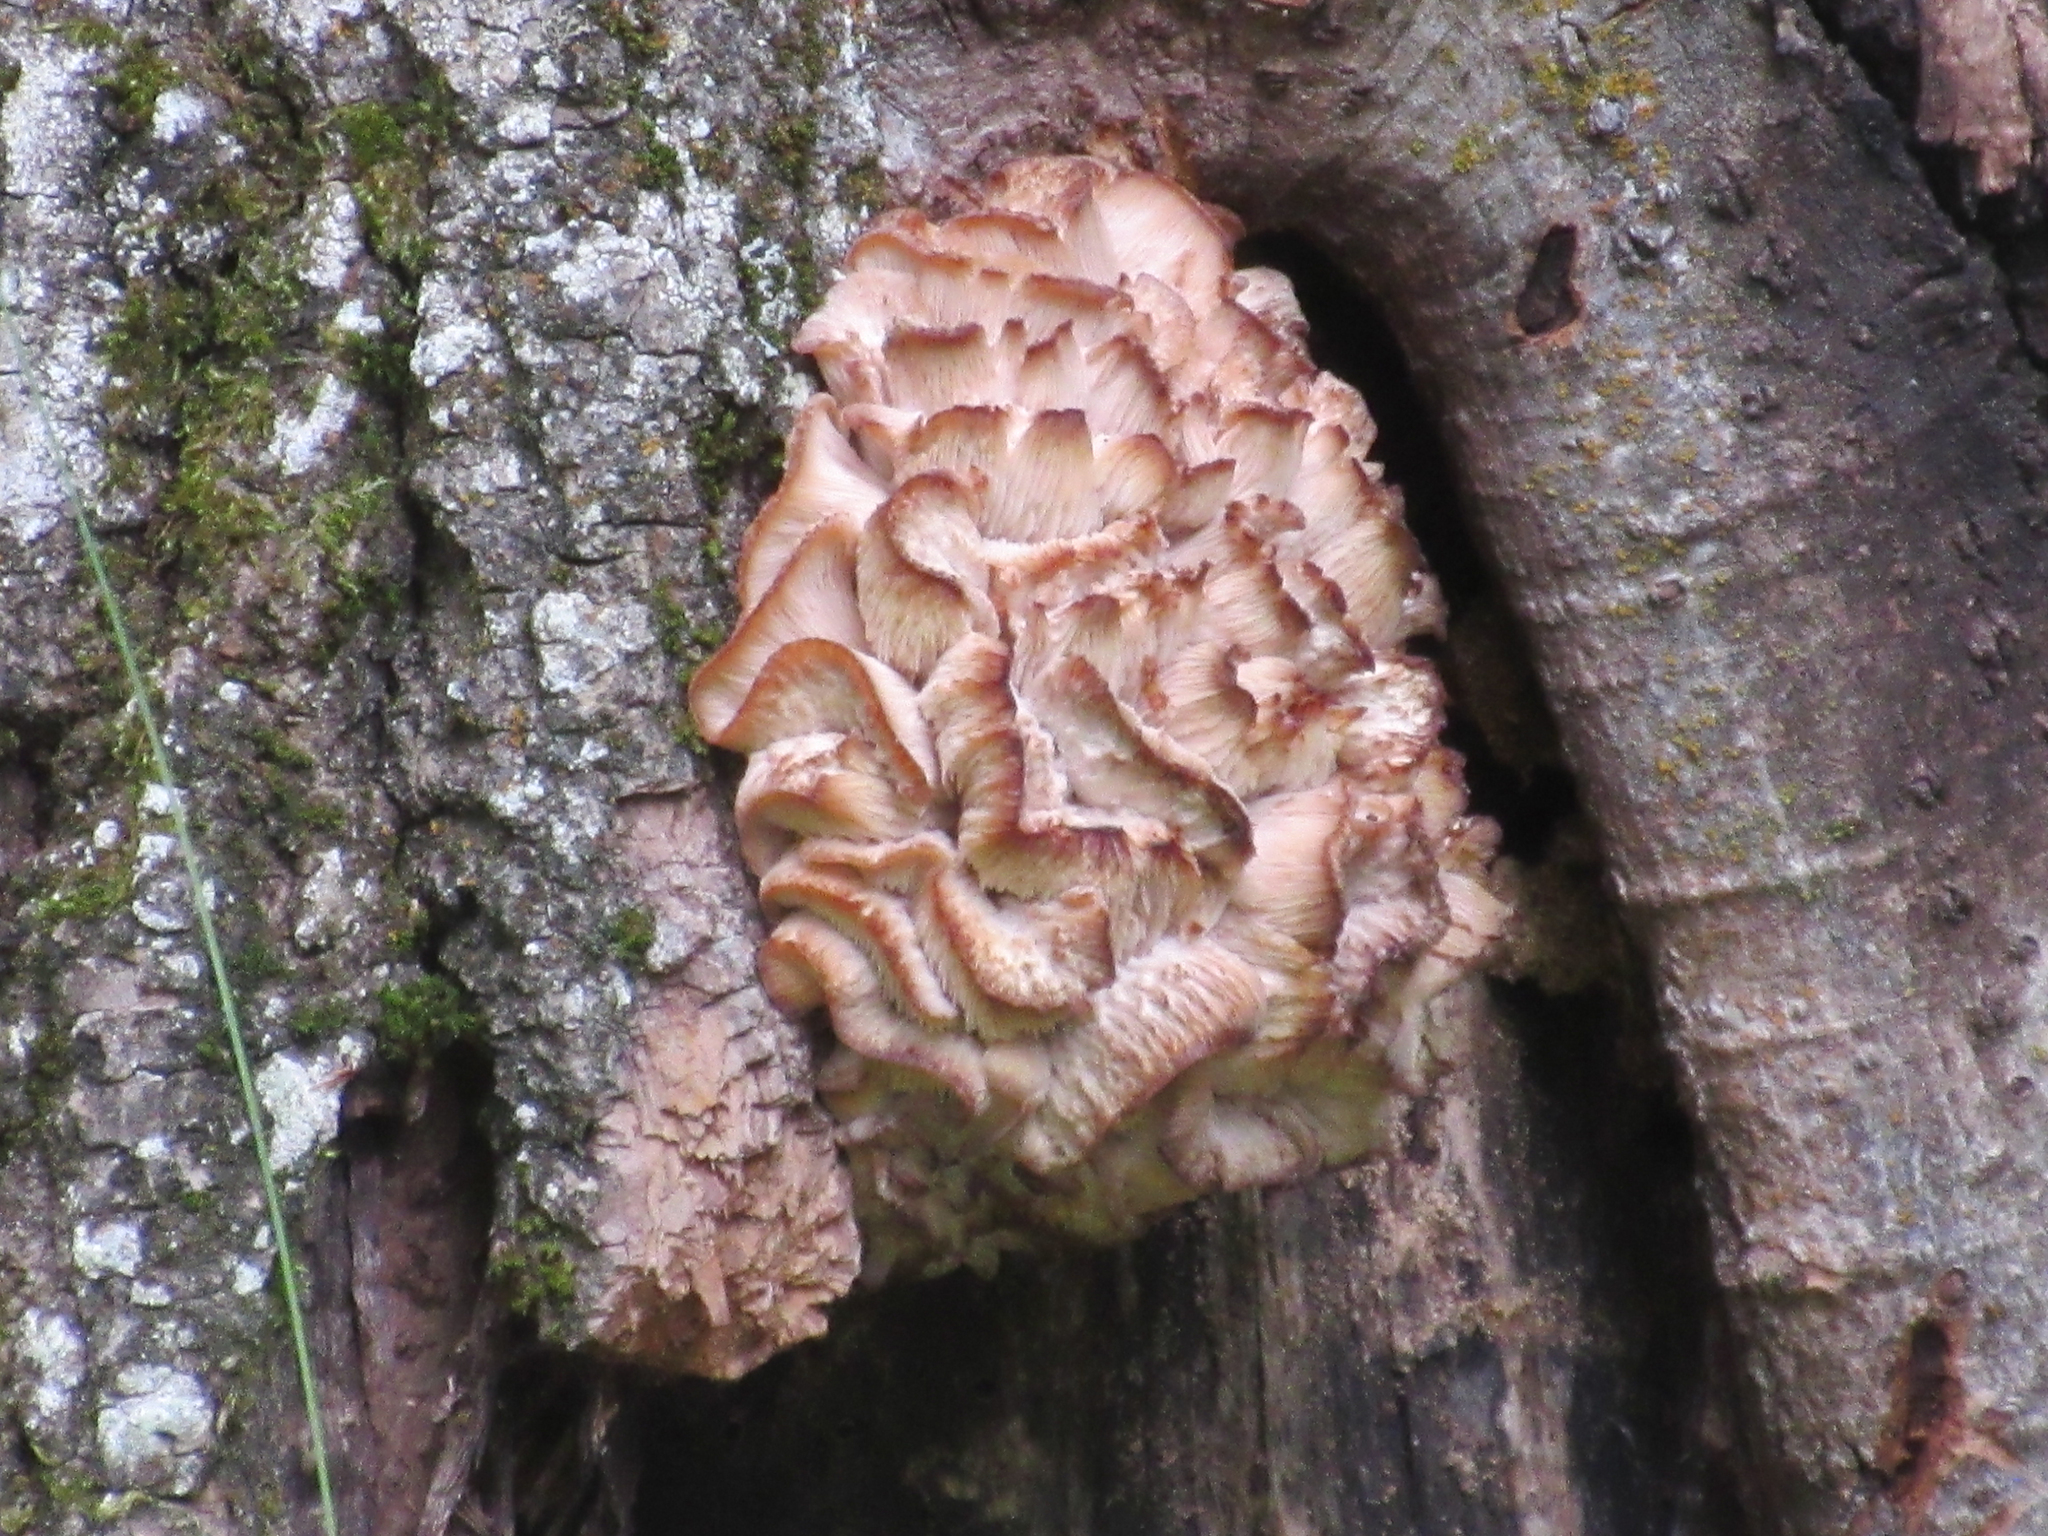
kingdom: Fungi
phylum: Basidiomycota
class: Agaricomycetes
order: Polyporales
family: Meruliaceae
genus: Climacodon
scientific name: Climacodon septentrionalis
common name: Northern tooth
